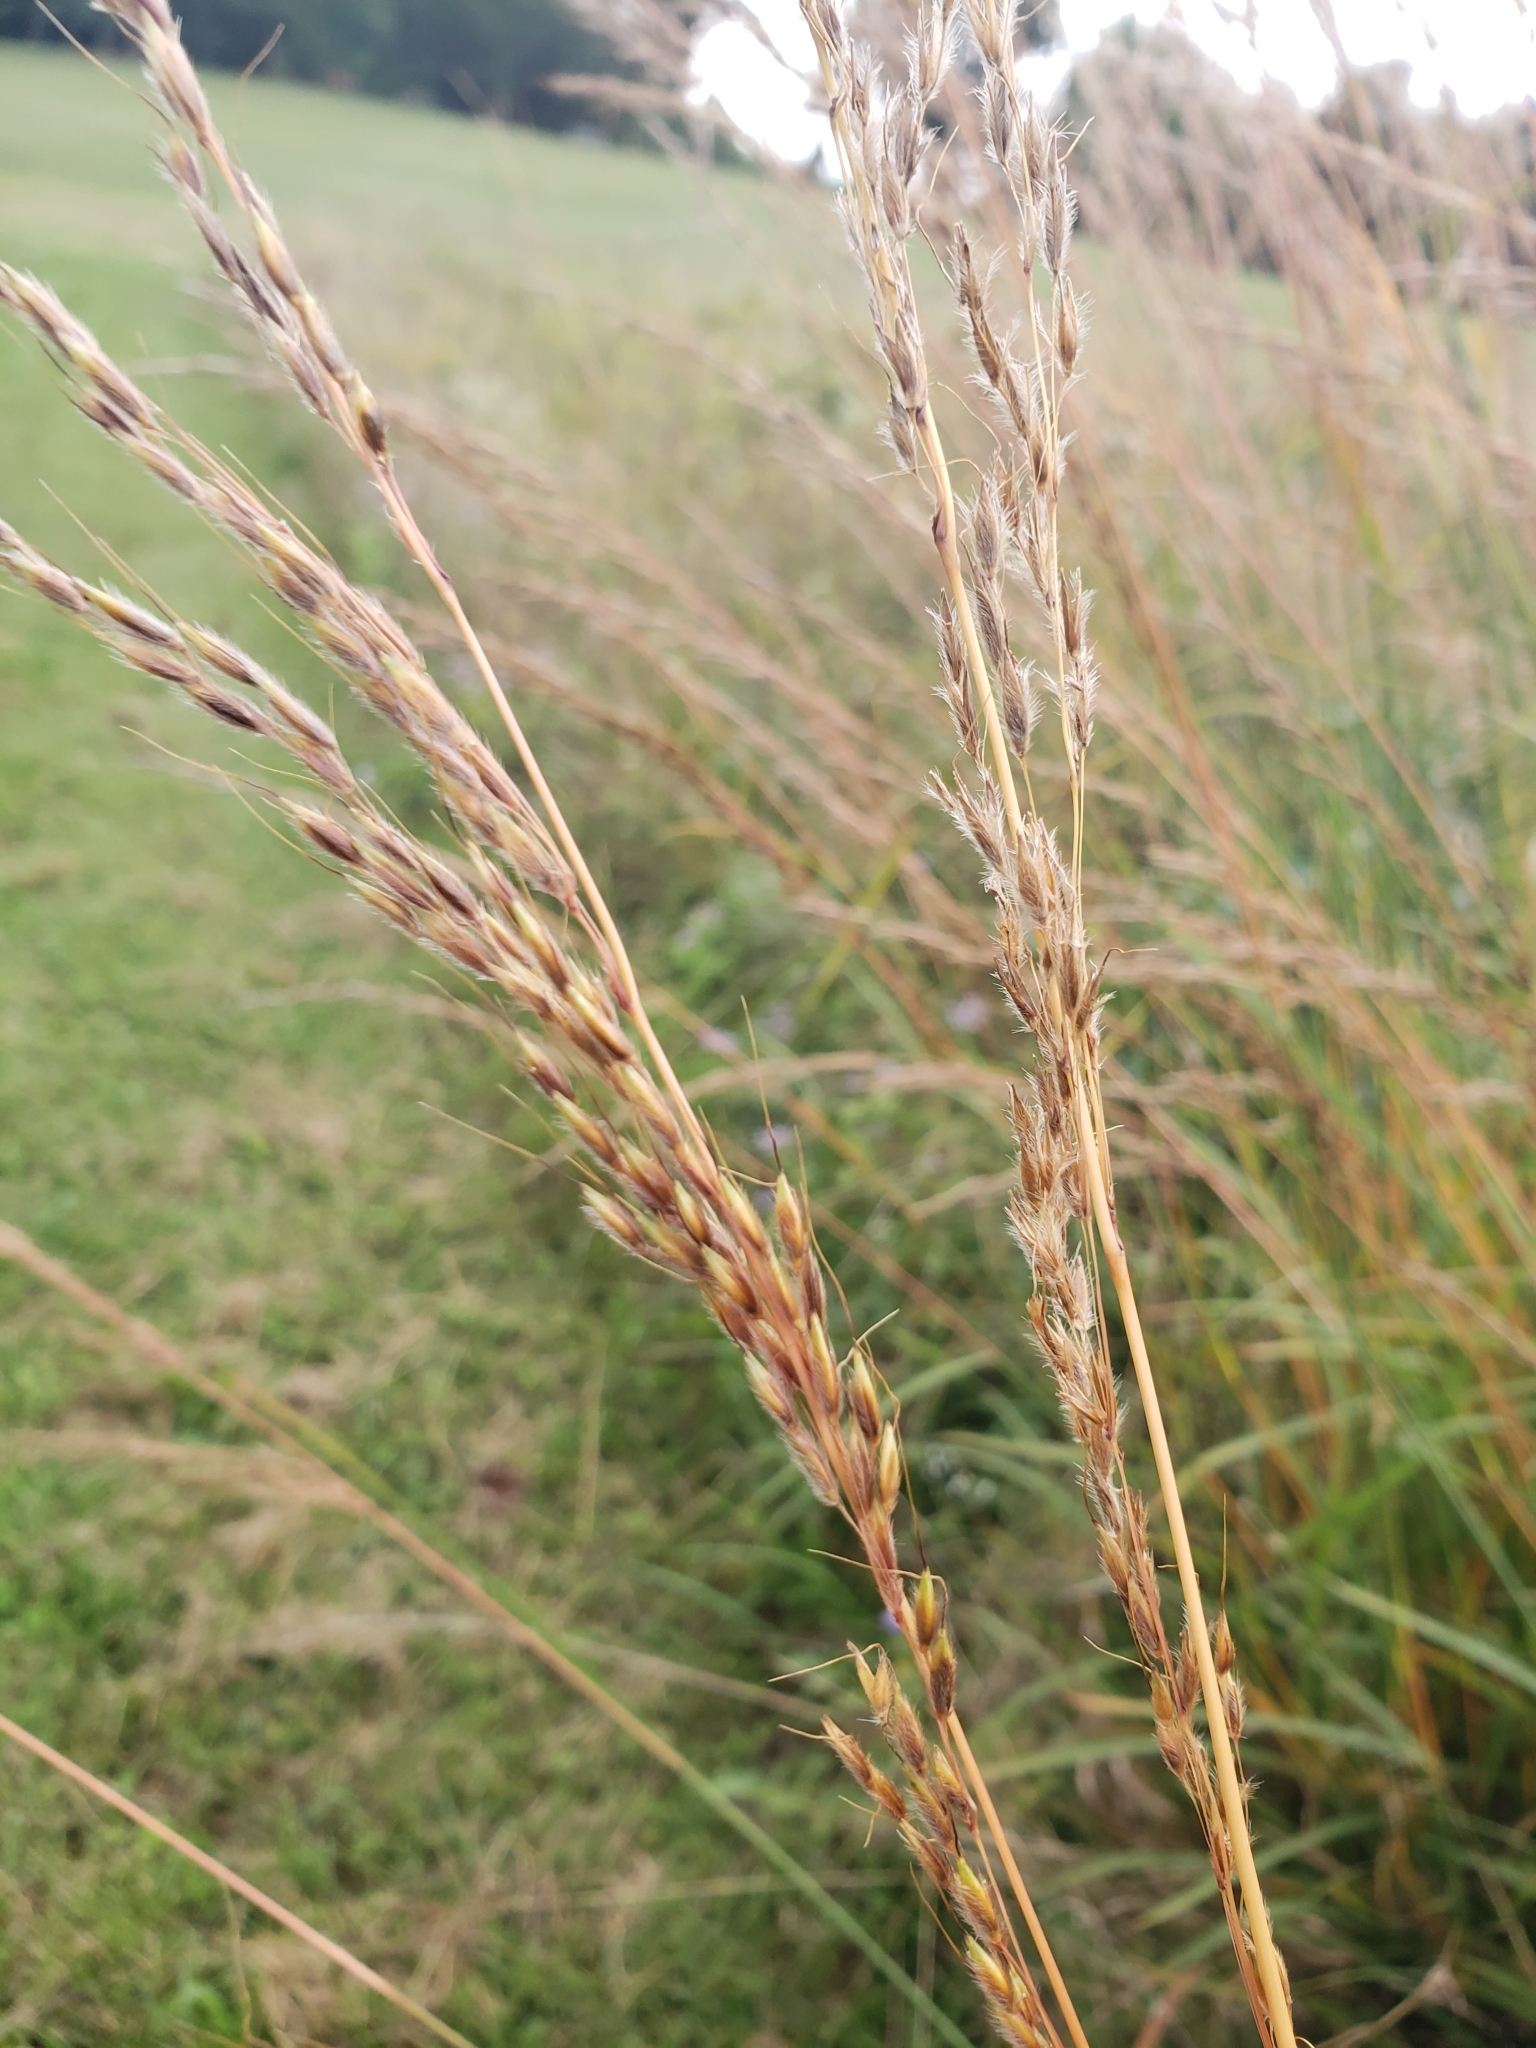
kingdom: Plantae
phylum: Tracheophyta
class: Liliopsida
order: Poales
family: Poaceae
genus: Sorghastrum
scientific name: Sorghastrum nutans
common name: Indian grass
